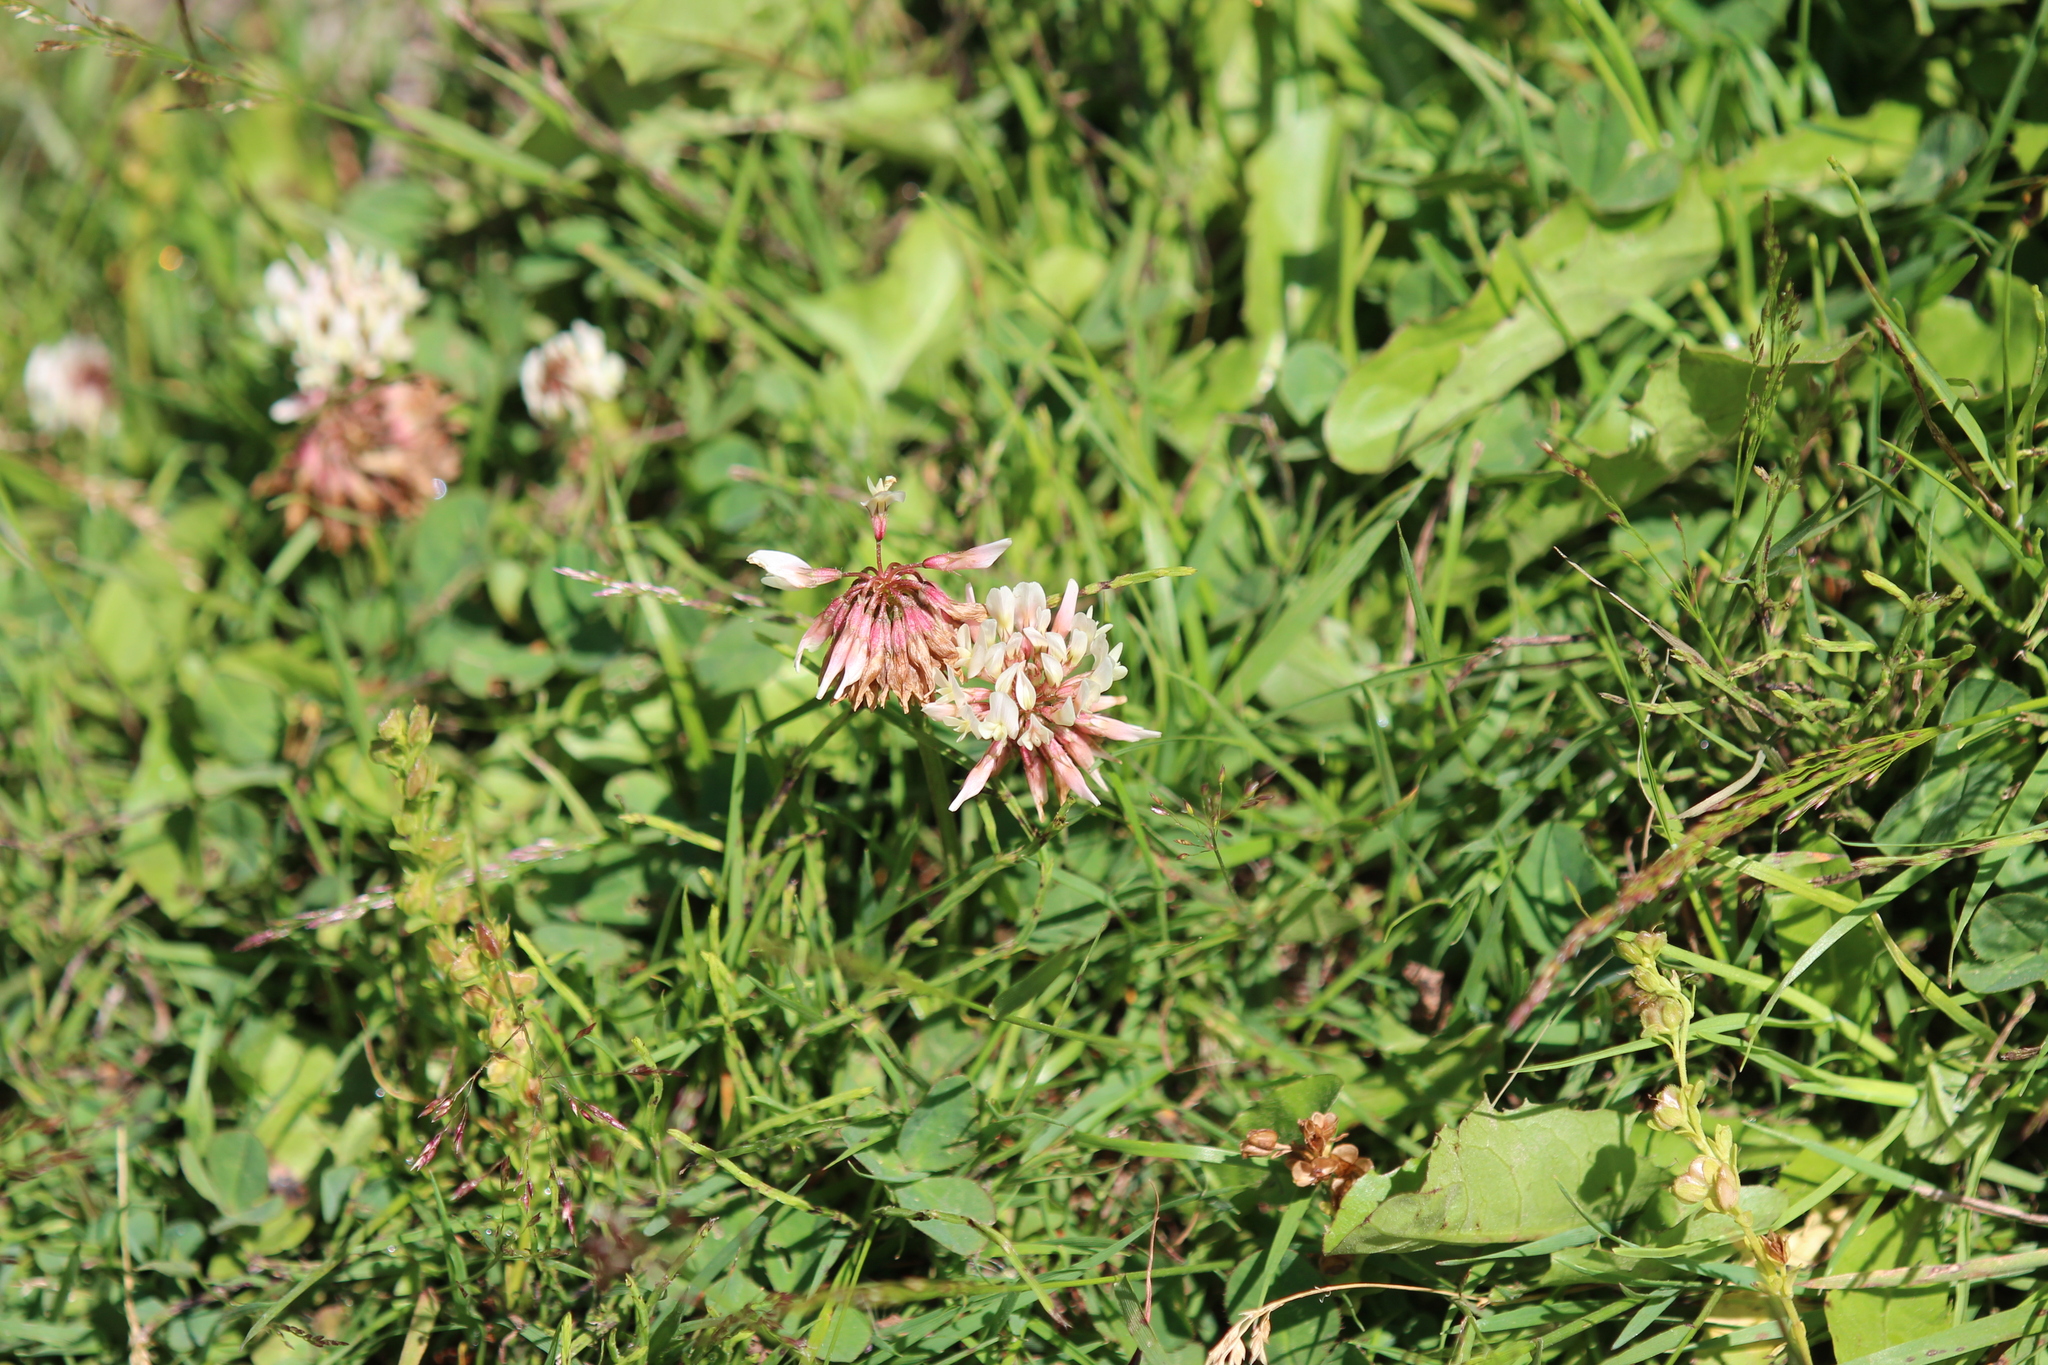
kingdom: Plantae
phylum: Tracheophyta
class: Magnoliopsida
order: Fabales
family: Fabaceae
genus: Trifolium
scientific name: Trifolium repens
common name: White clover
